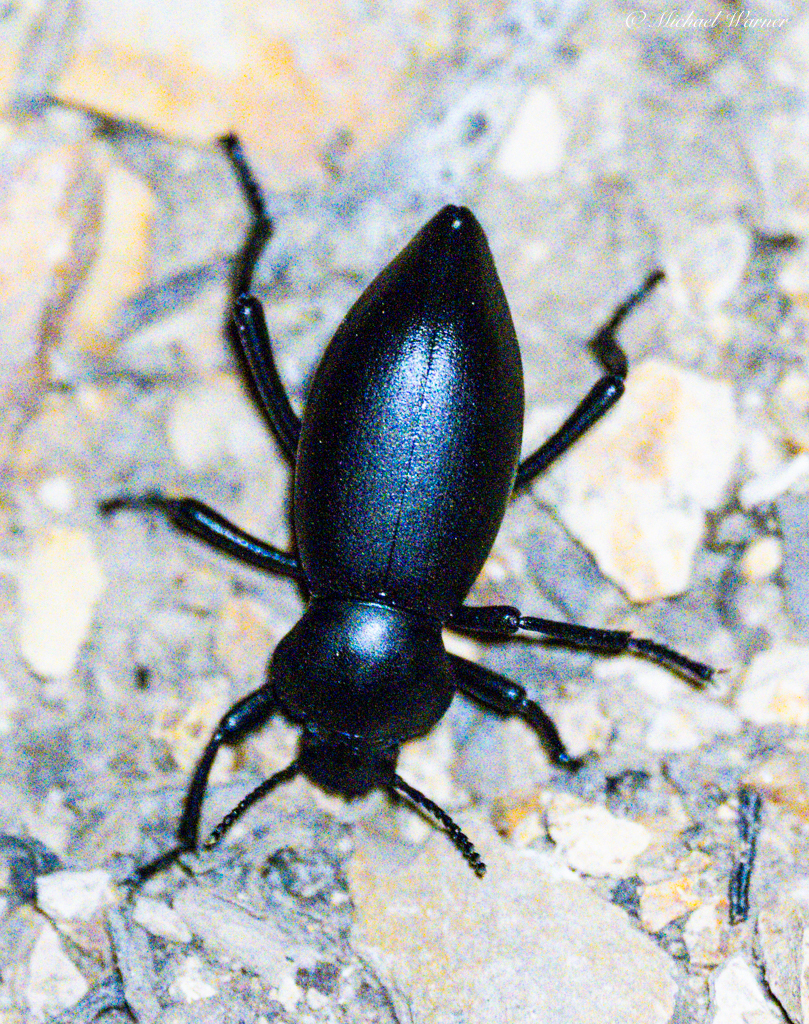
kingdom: Animalia
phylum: Arthropoda
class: Insecta
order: Coleoptera
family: Tenebrionidae
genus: Eleodes
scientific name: Eleodes dentipes
